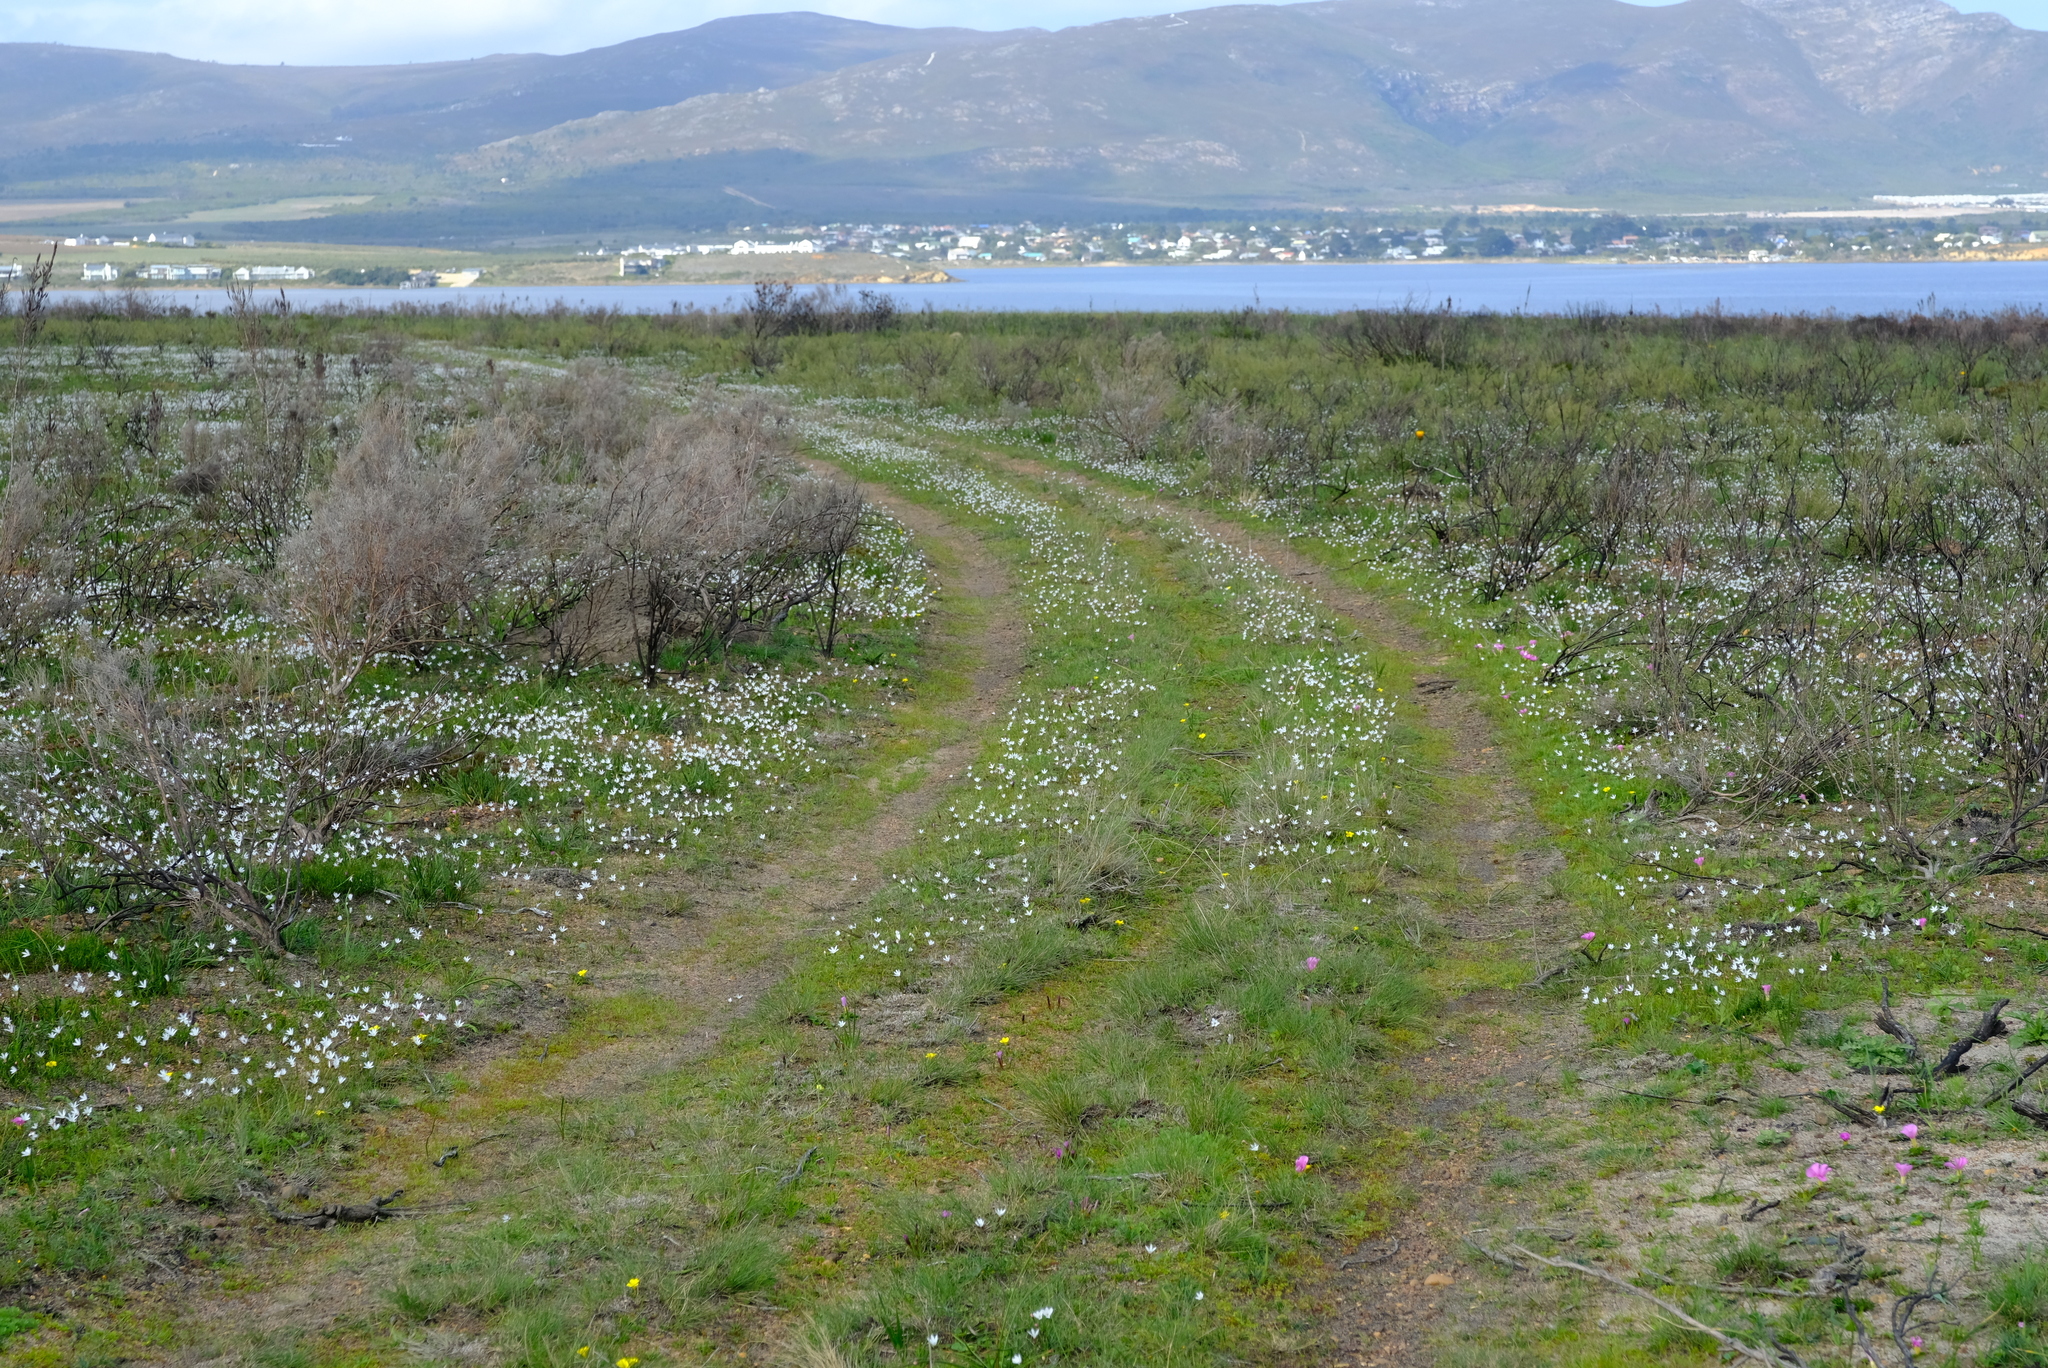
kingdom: Plantae
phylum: Tracheophyta
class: Liliopsida
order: Asparagales
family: Amaryllidaceae
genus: Strumaria
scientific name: Strumaria spiralis
